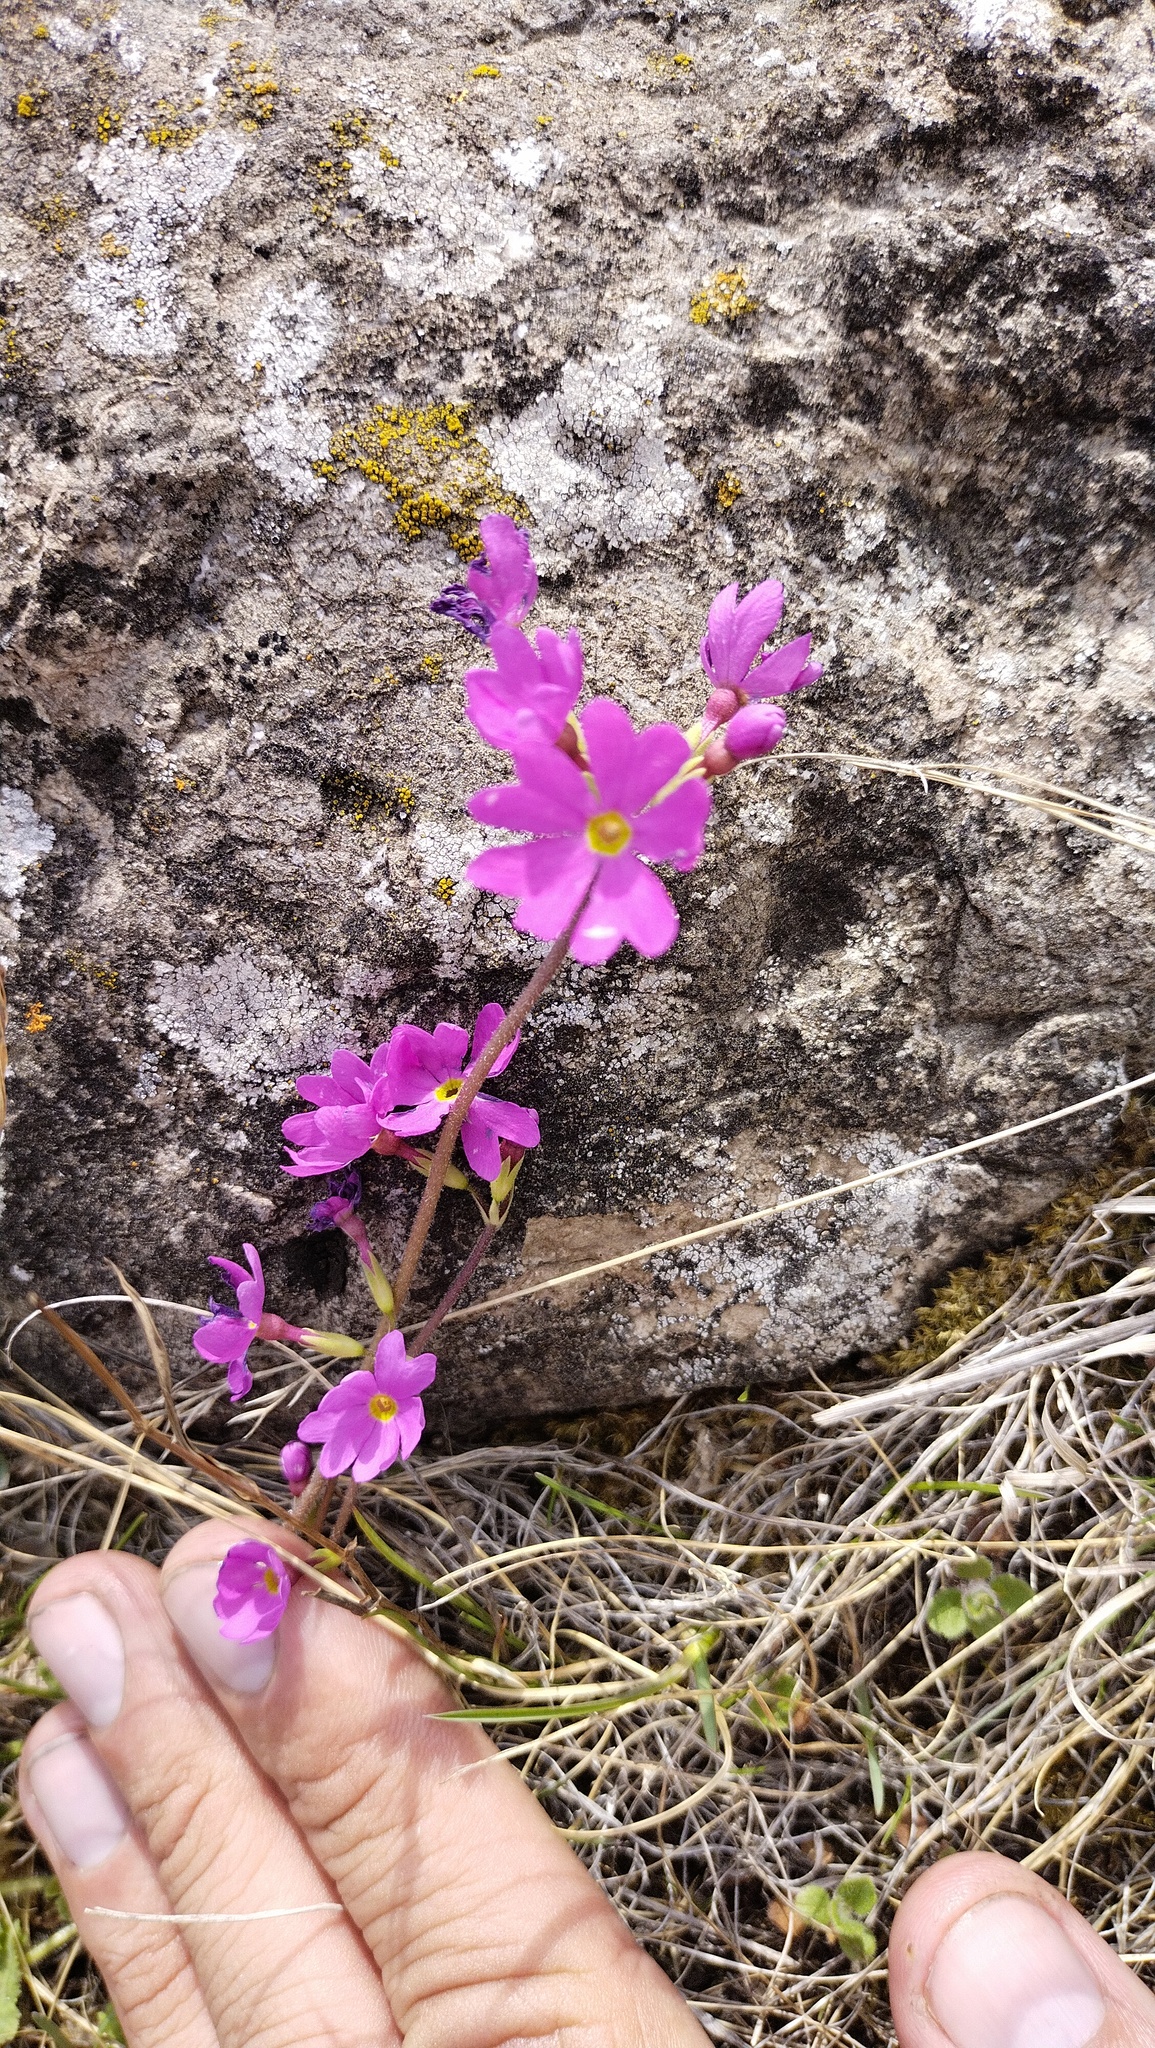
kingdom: Plantae
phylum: Tracheophyta
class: Magnoliopsida
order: Ericales
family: Primulaceae
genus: Primula
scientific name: Primula cortusoides
